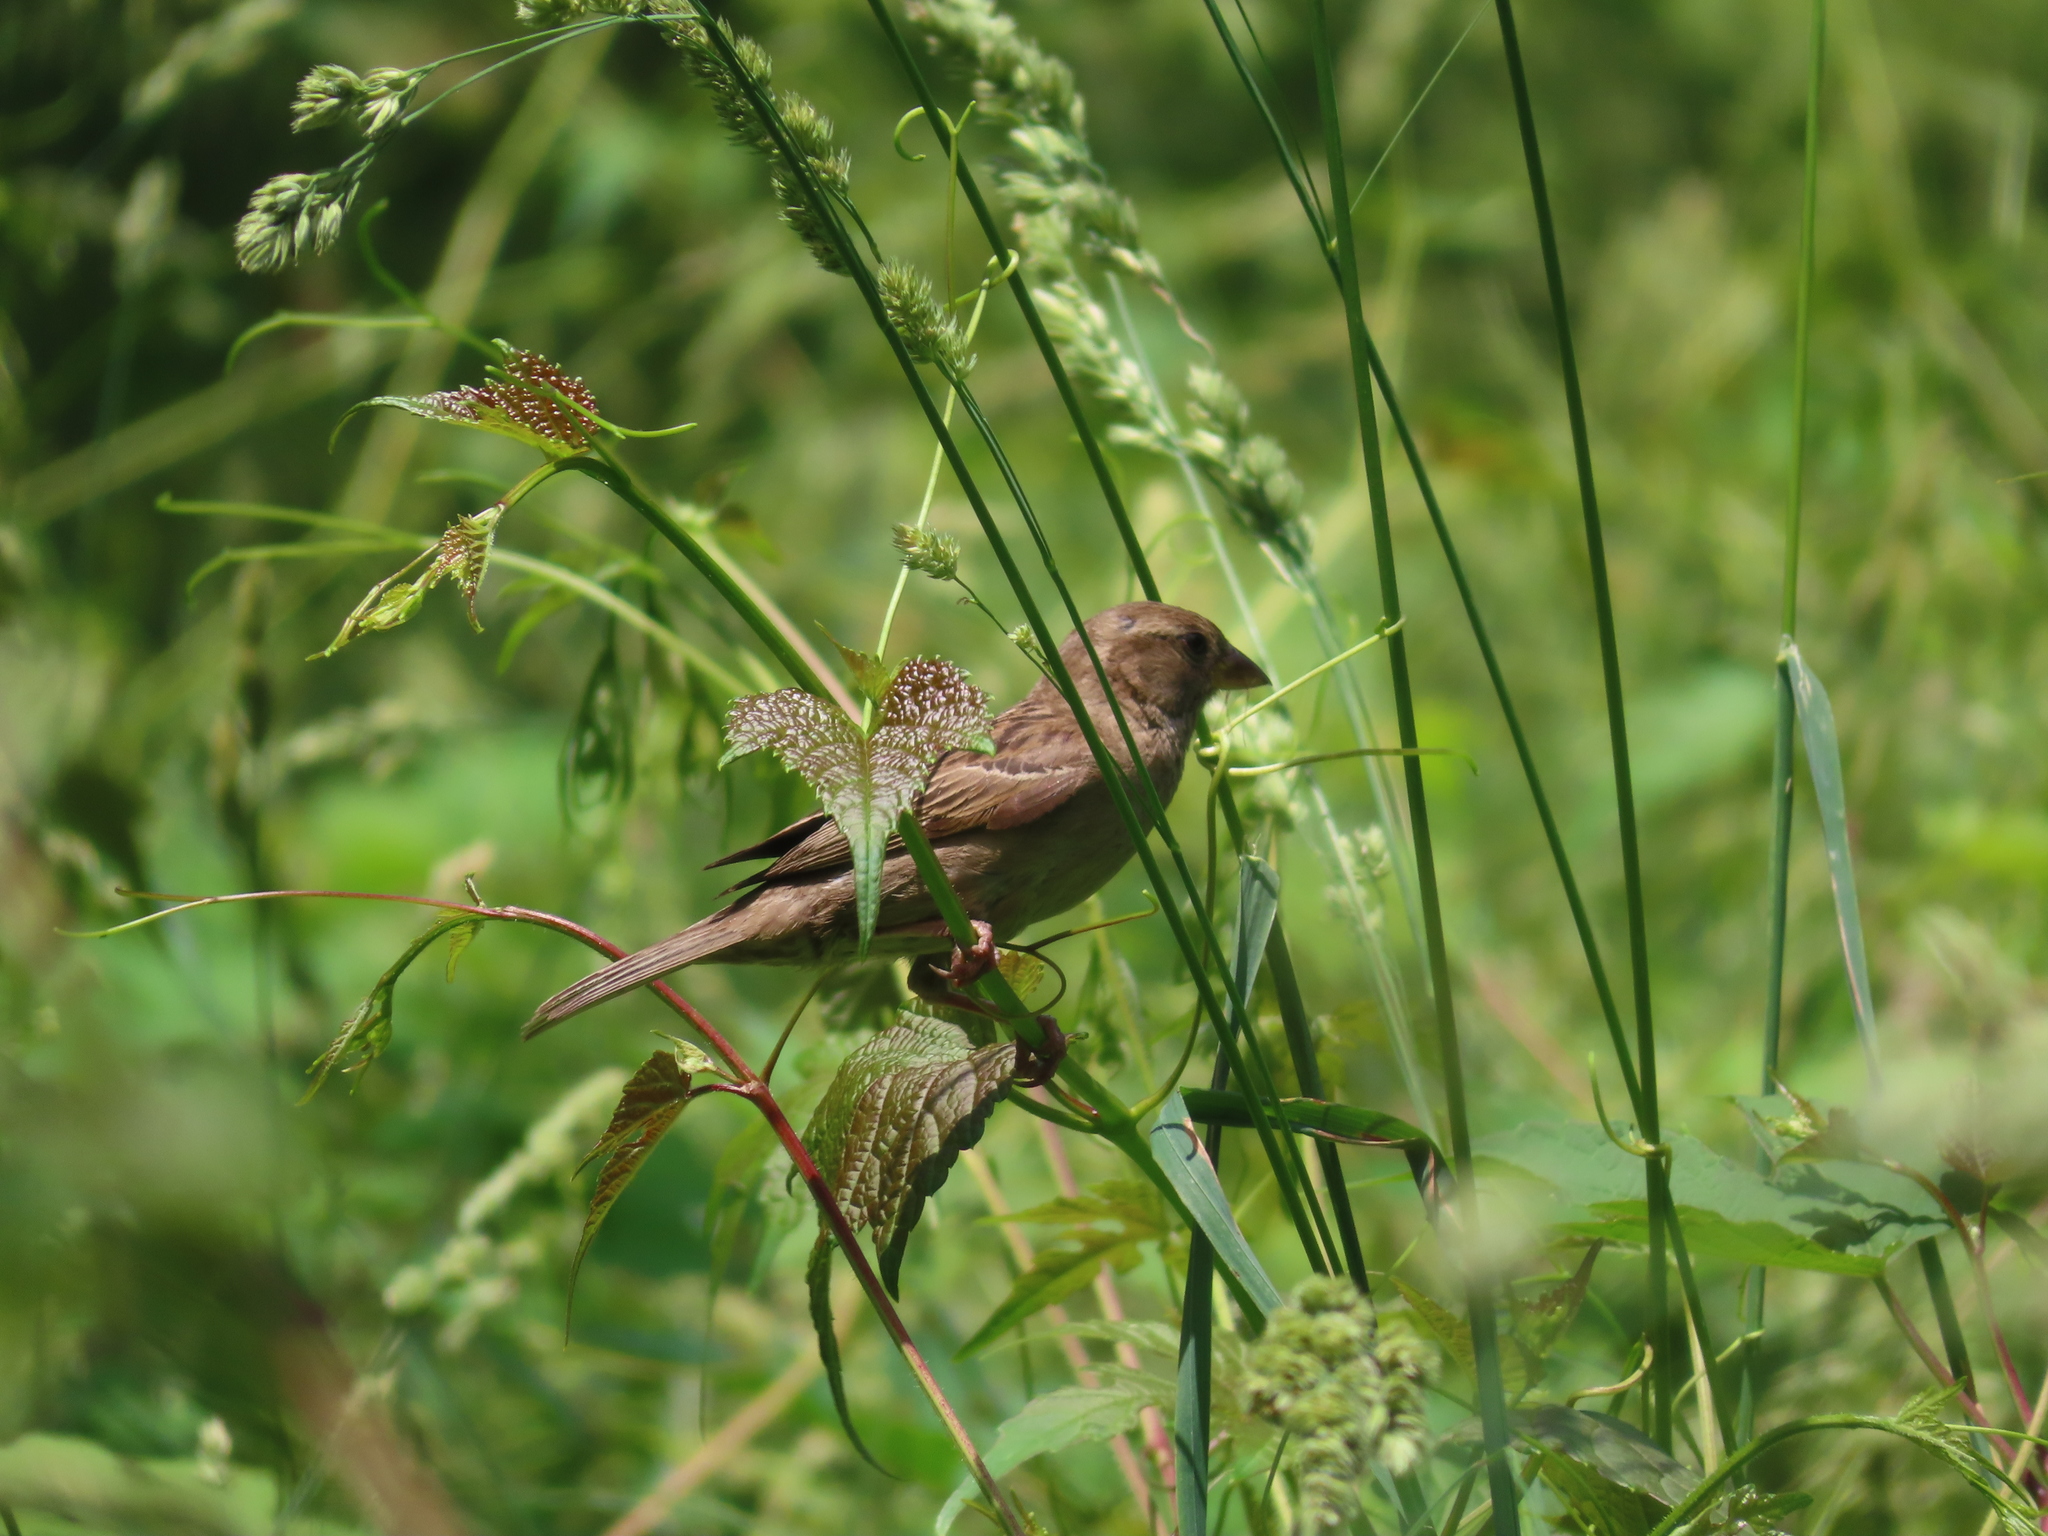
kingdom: Animalia
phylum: Chordata
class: Aves
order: Passeriformes
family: Passeridae
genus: Passer
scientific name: Passer domesticus
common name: House sparrow
